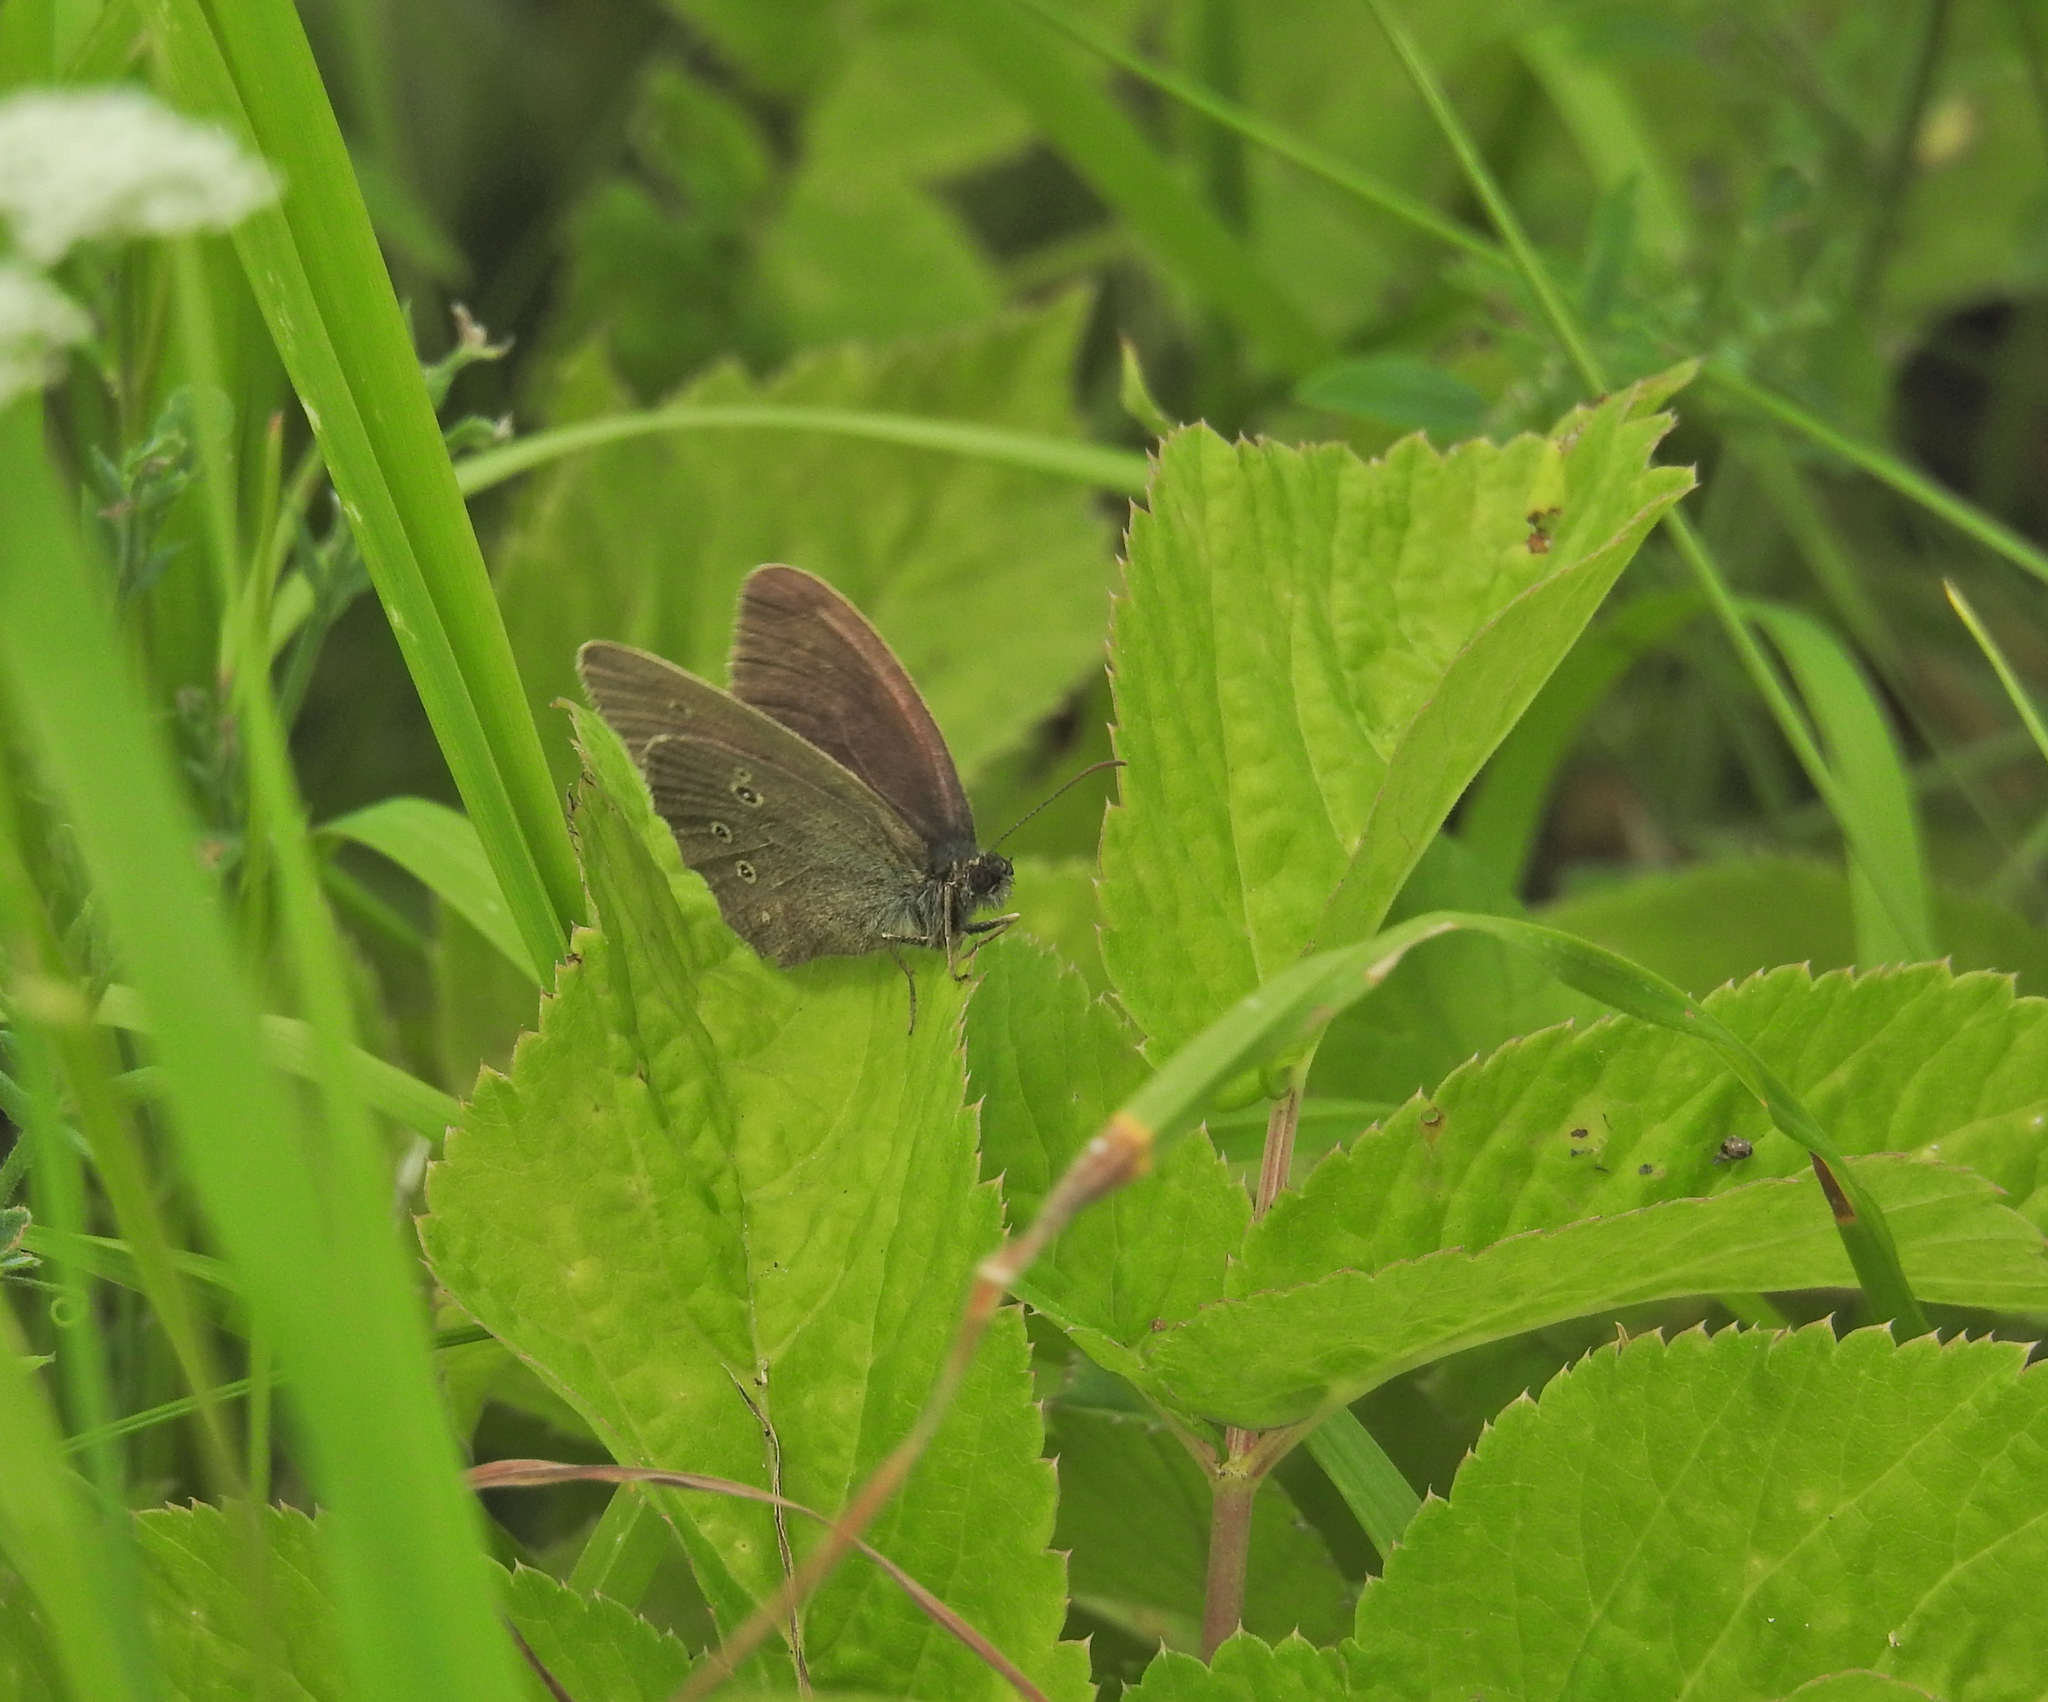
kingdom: Animalia
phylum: Arthropoda
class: Insecta
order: Lepidoptera
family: Nymphalidae
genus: Aphantopus
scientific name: Aphantopus hyperantus
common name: Ringlet
